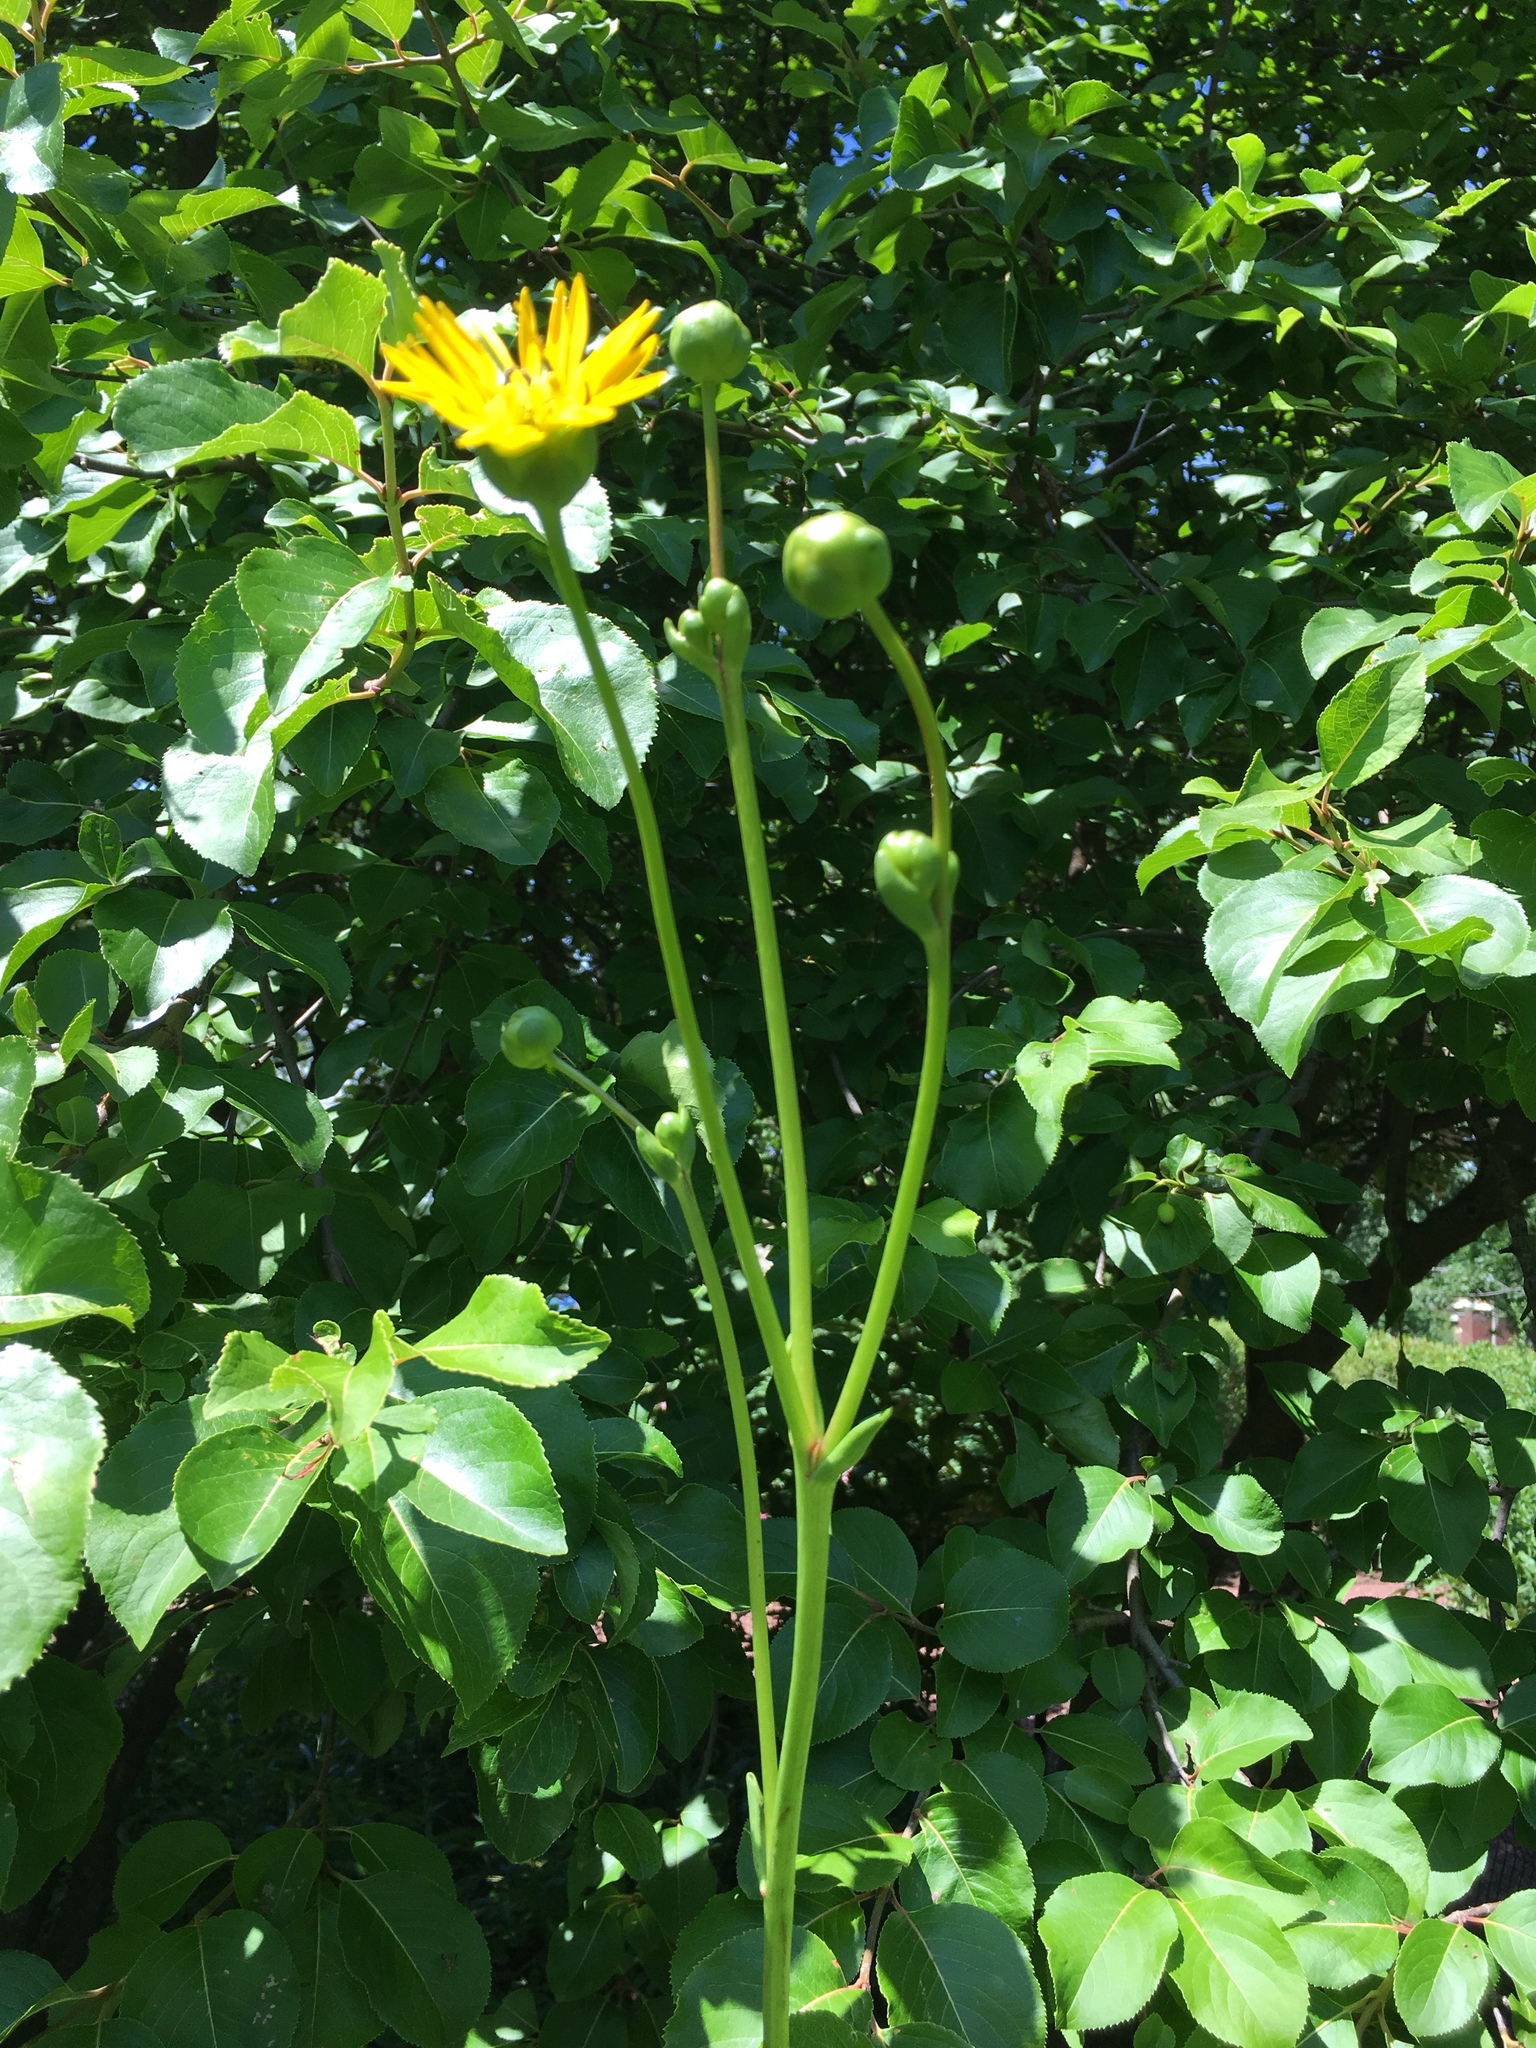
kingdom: Plantae
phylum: Tracheophyta
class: Magnoliopsida
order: Asterales
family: Asteraceae
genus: Silphium
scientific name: Silphium terebinthinaceum
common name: Basal-leaf rosinweed
